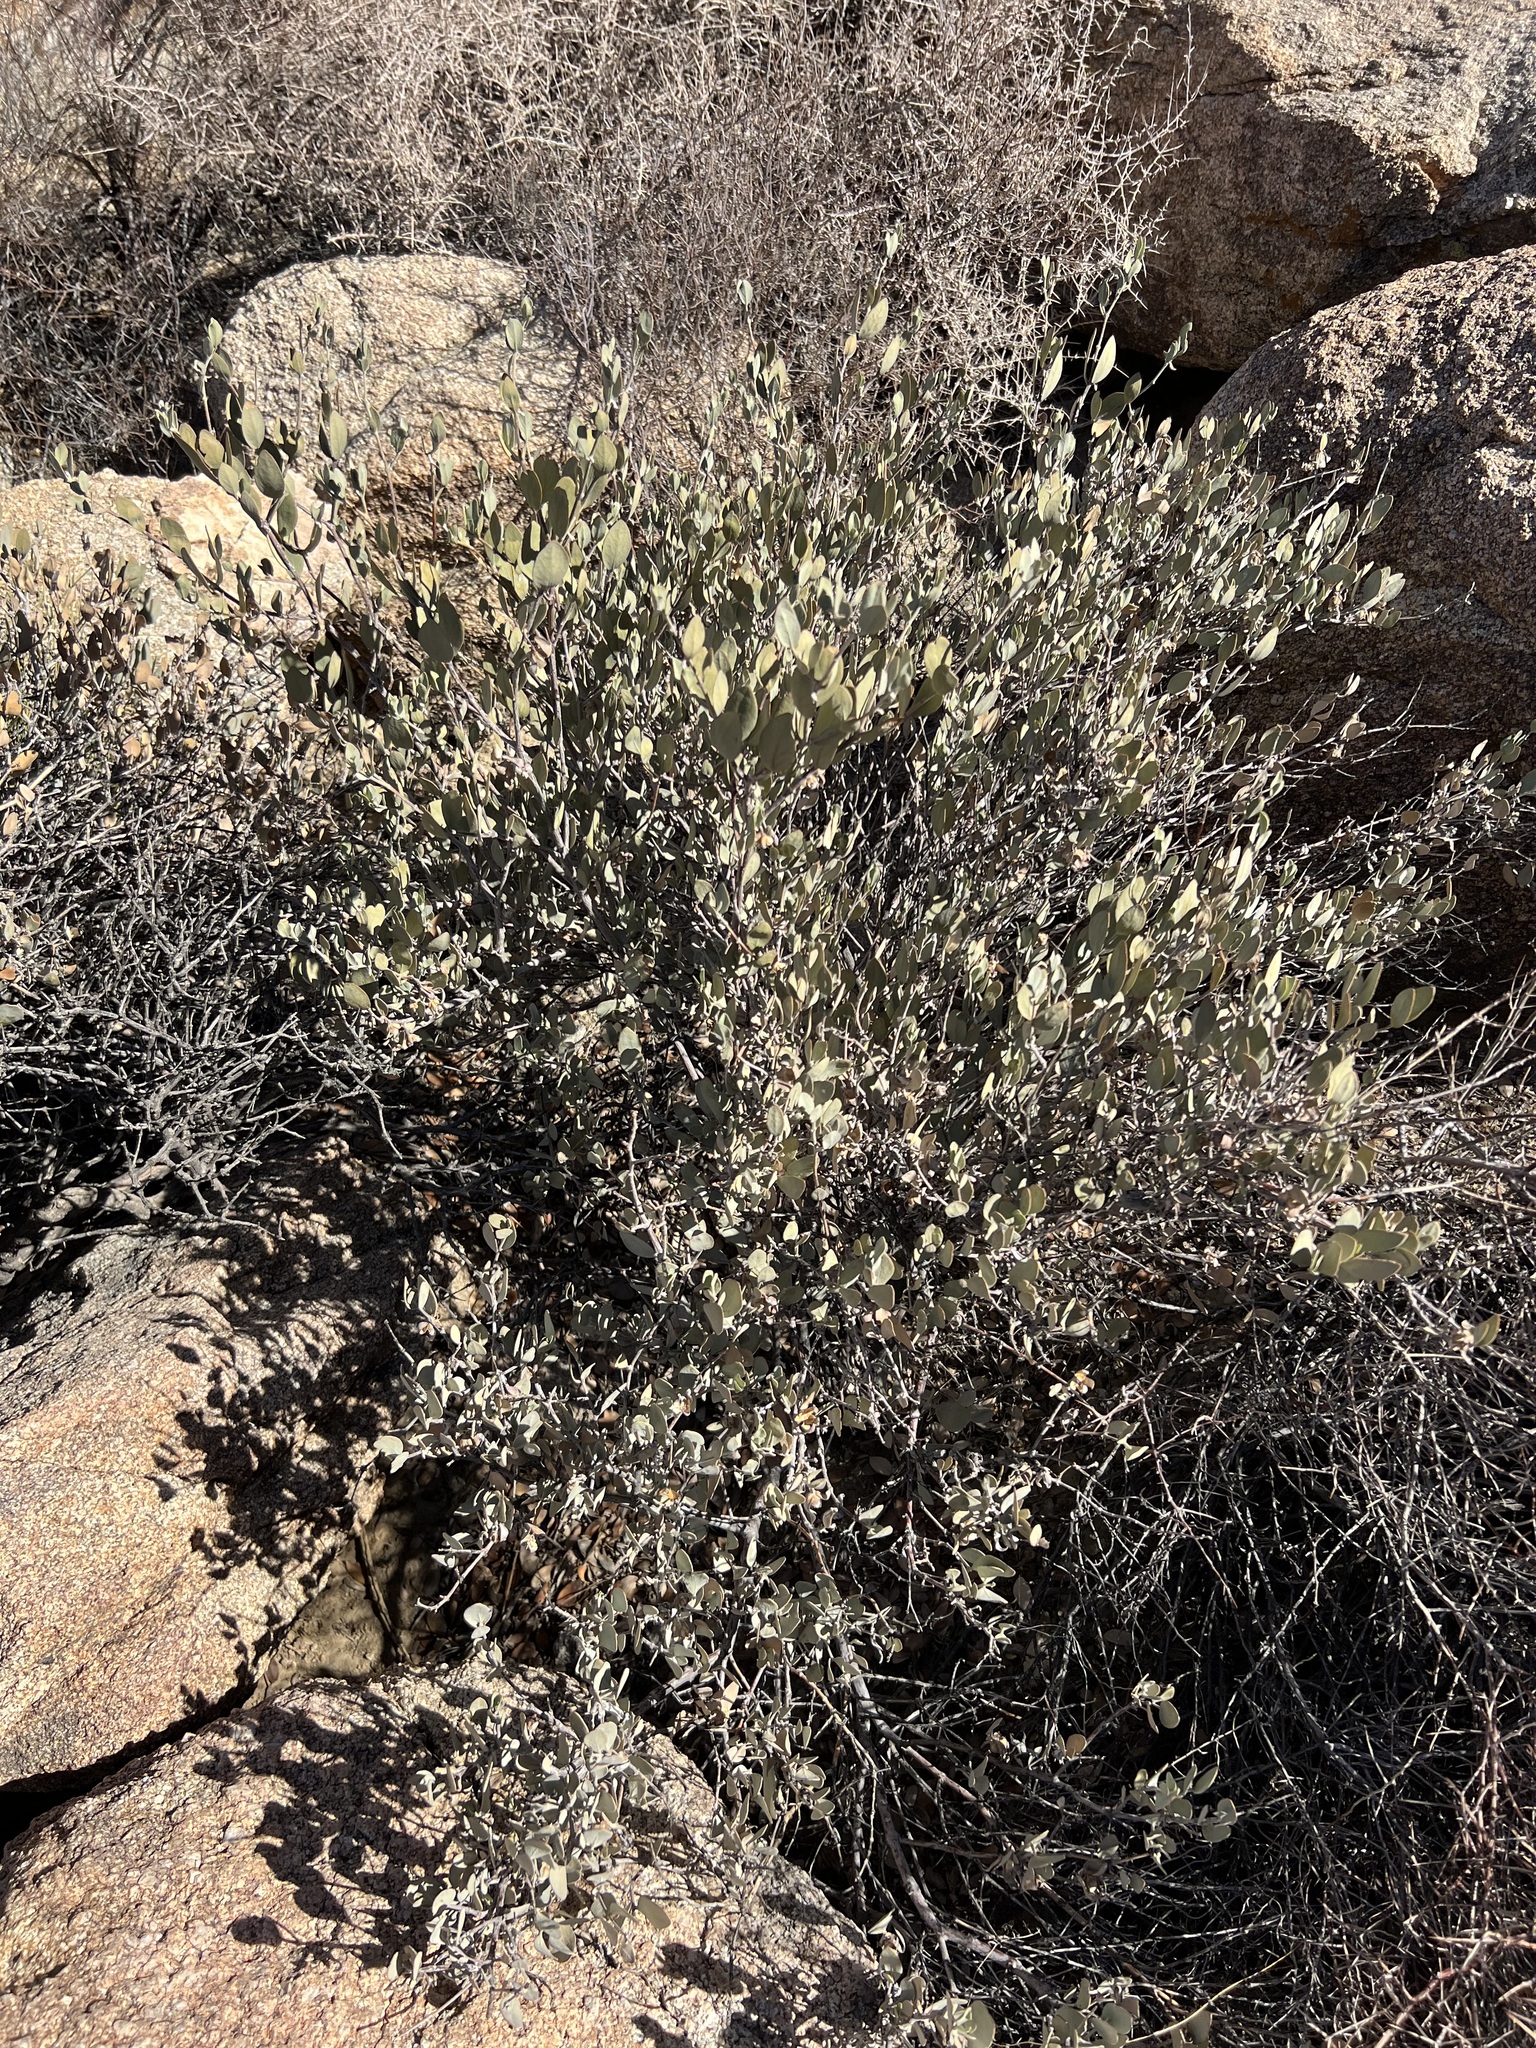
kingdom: Plantae
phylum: Tracheophyta
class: Magnoliopsida
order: Caryophyllales
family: Simmondsiaceae
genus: Simmondsia
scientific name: Simmondsia chinensis
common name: Jojoba
